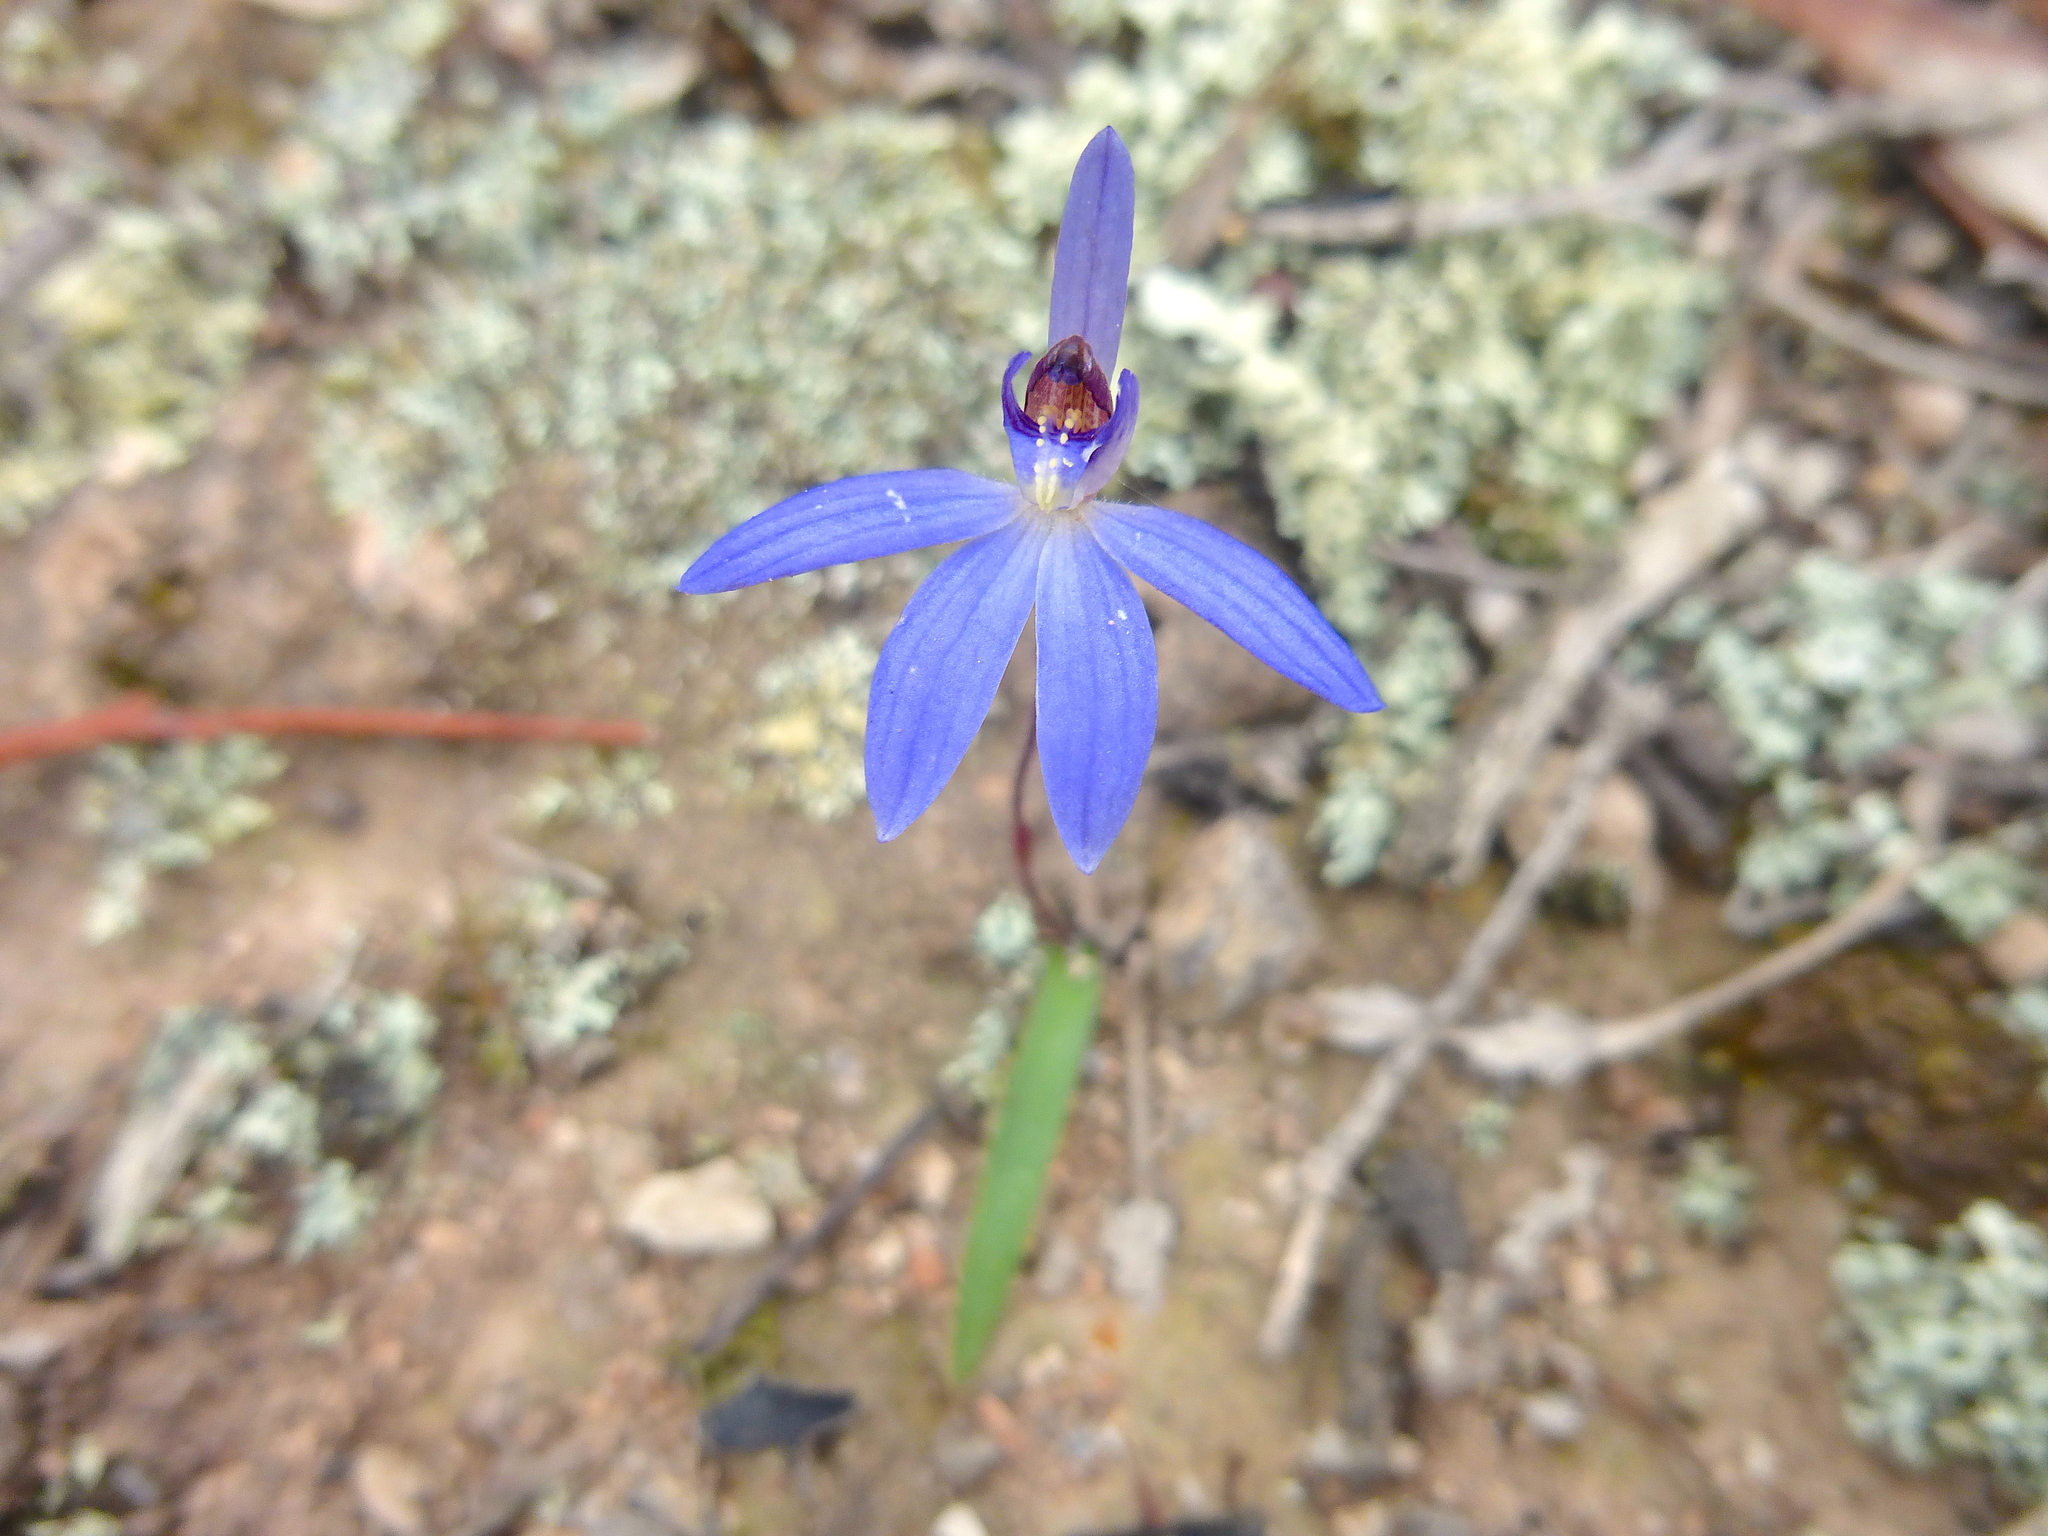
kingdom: Plantae
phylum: Tracheophyta
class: Liliopsida
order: Asparagales
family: Orchidaceae
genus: Caladenia
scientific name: Caladenia caerulea
